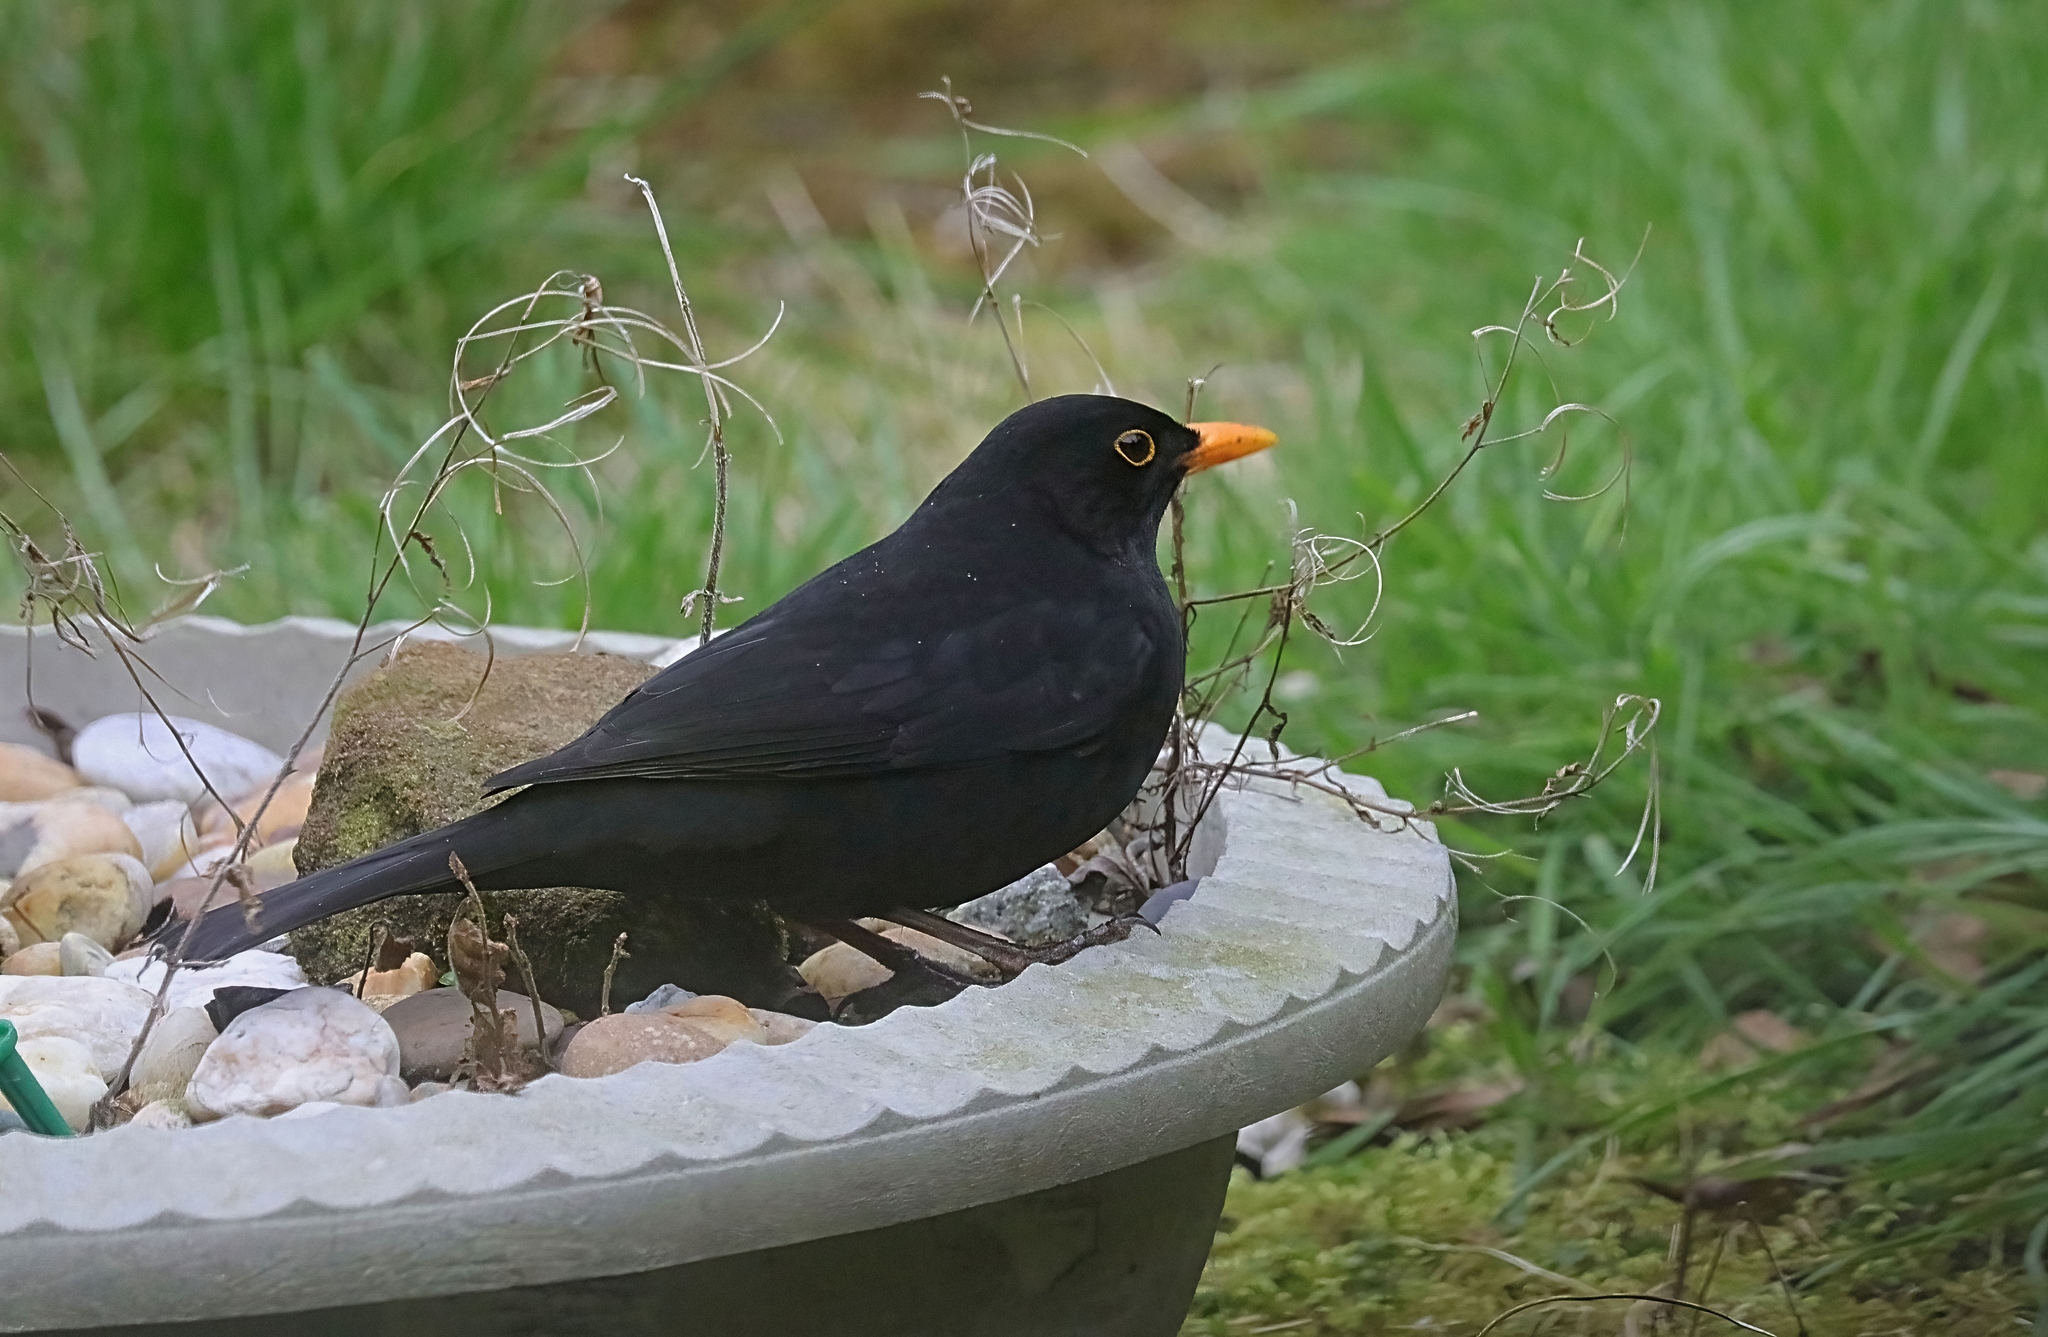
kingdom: Animalia
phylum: Chordata
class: Aves
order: Passeriformes
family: Turdidae
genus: Turdus
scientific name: Turdus merula
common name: Common blackbird
